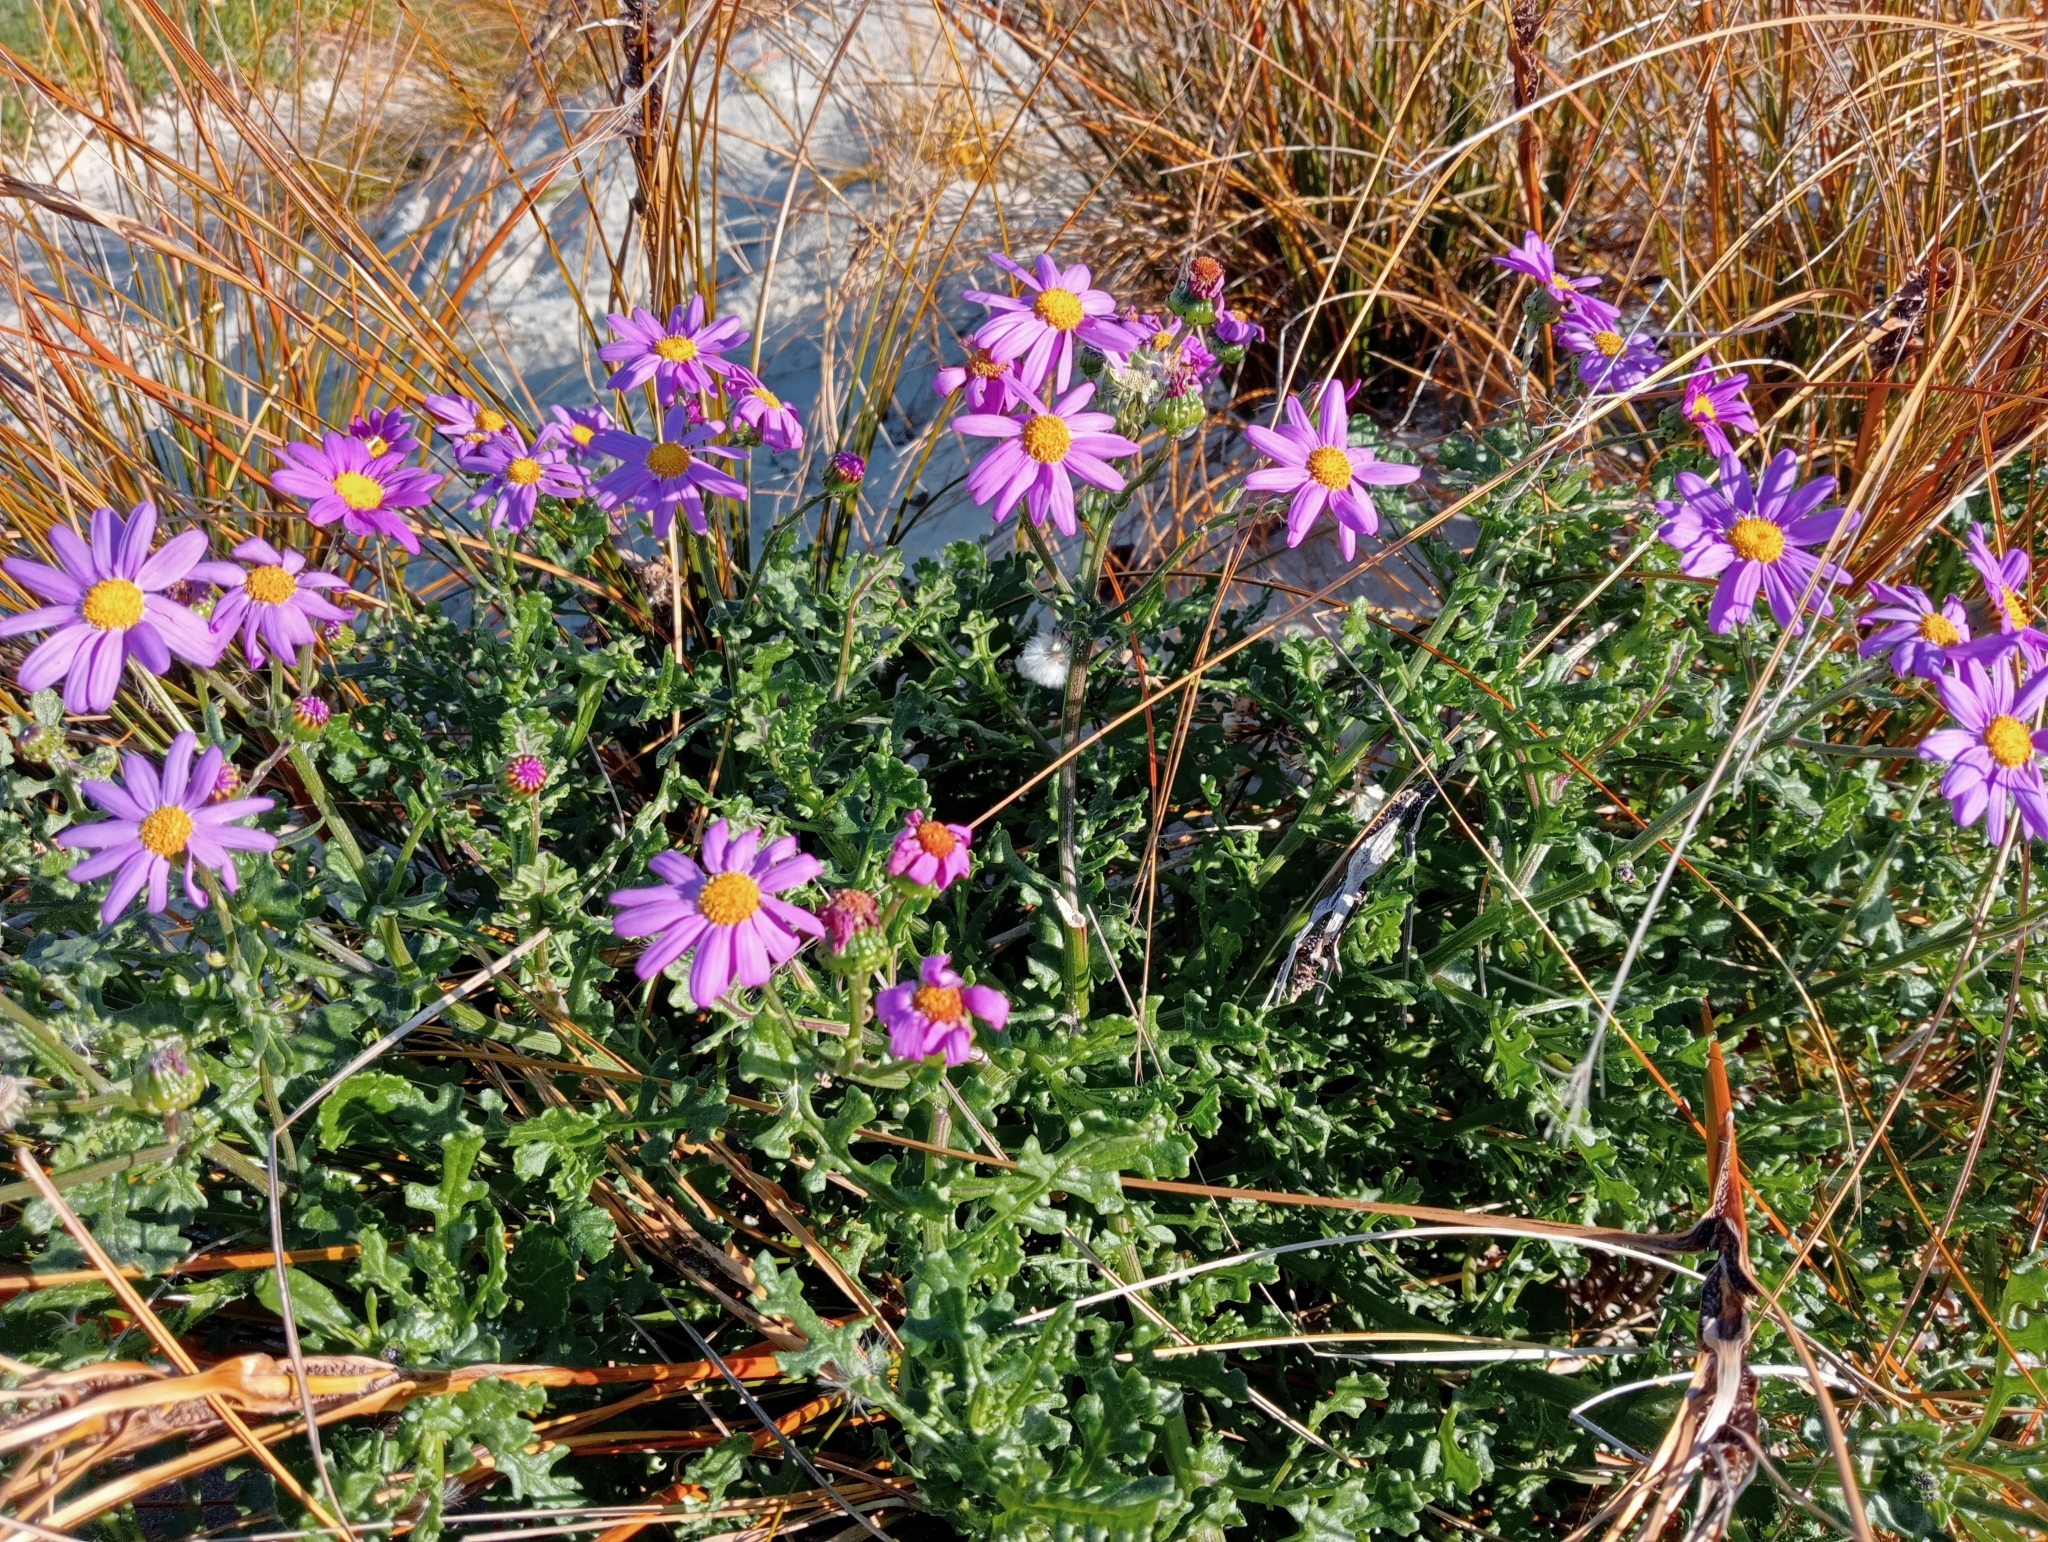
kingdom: Plantae
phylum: Tracheophyta
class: Magnoliopsida
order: Asterales
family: Asteraceae
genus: Senecio
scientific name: Senecio elegans
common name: Purple groundsel
